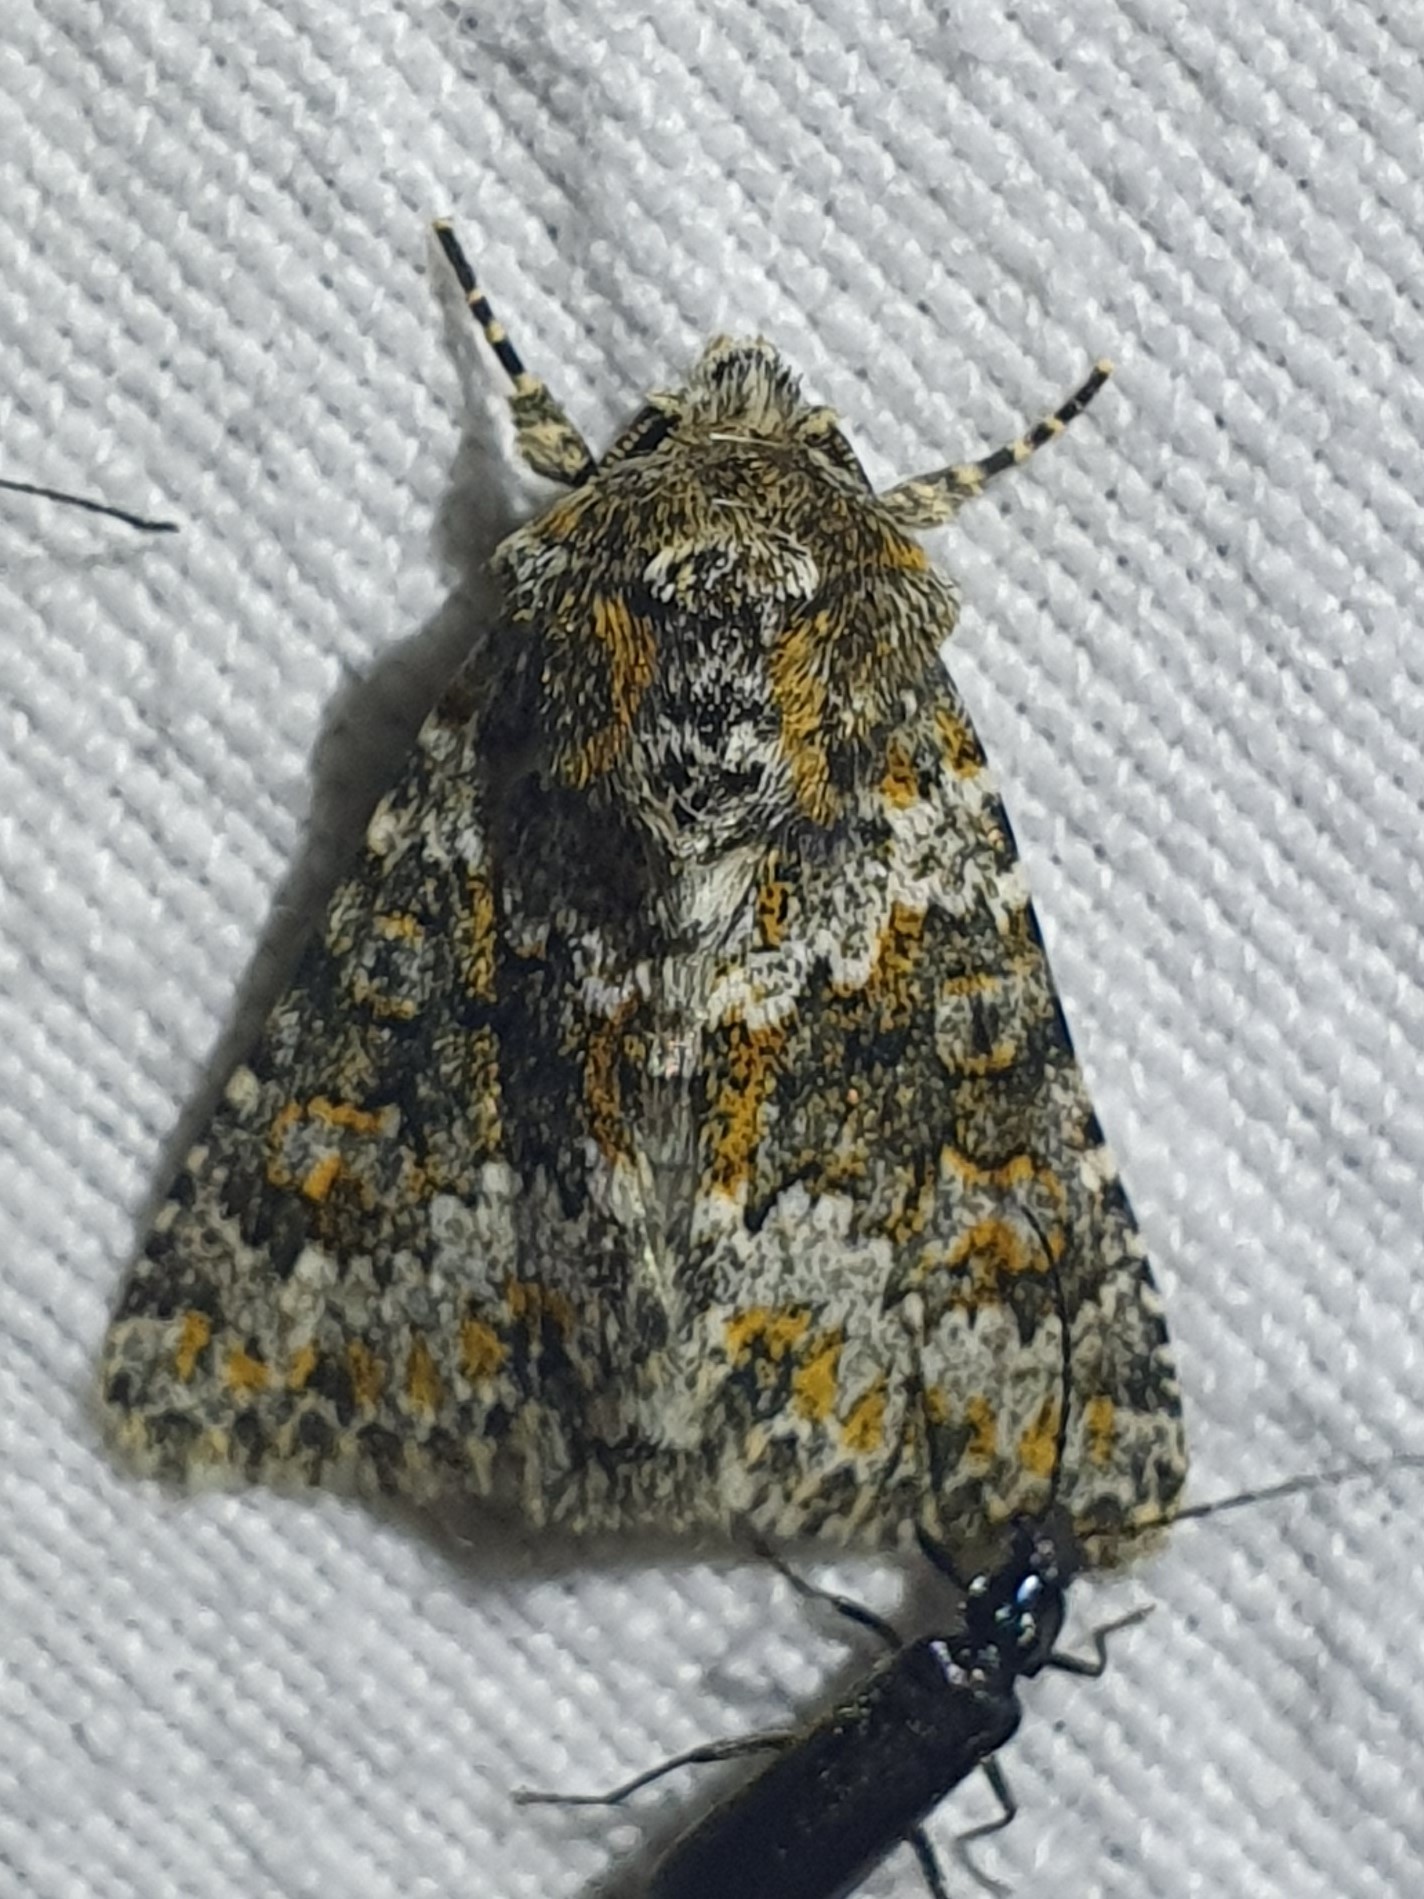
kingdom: Animalia
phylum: Arthropoda
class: Insecta
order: Lepidoptera
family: Noctuidae
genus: Hecatera
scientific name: Hecatera dysodea
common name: Small ranunculus
